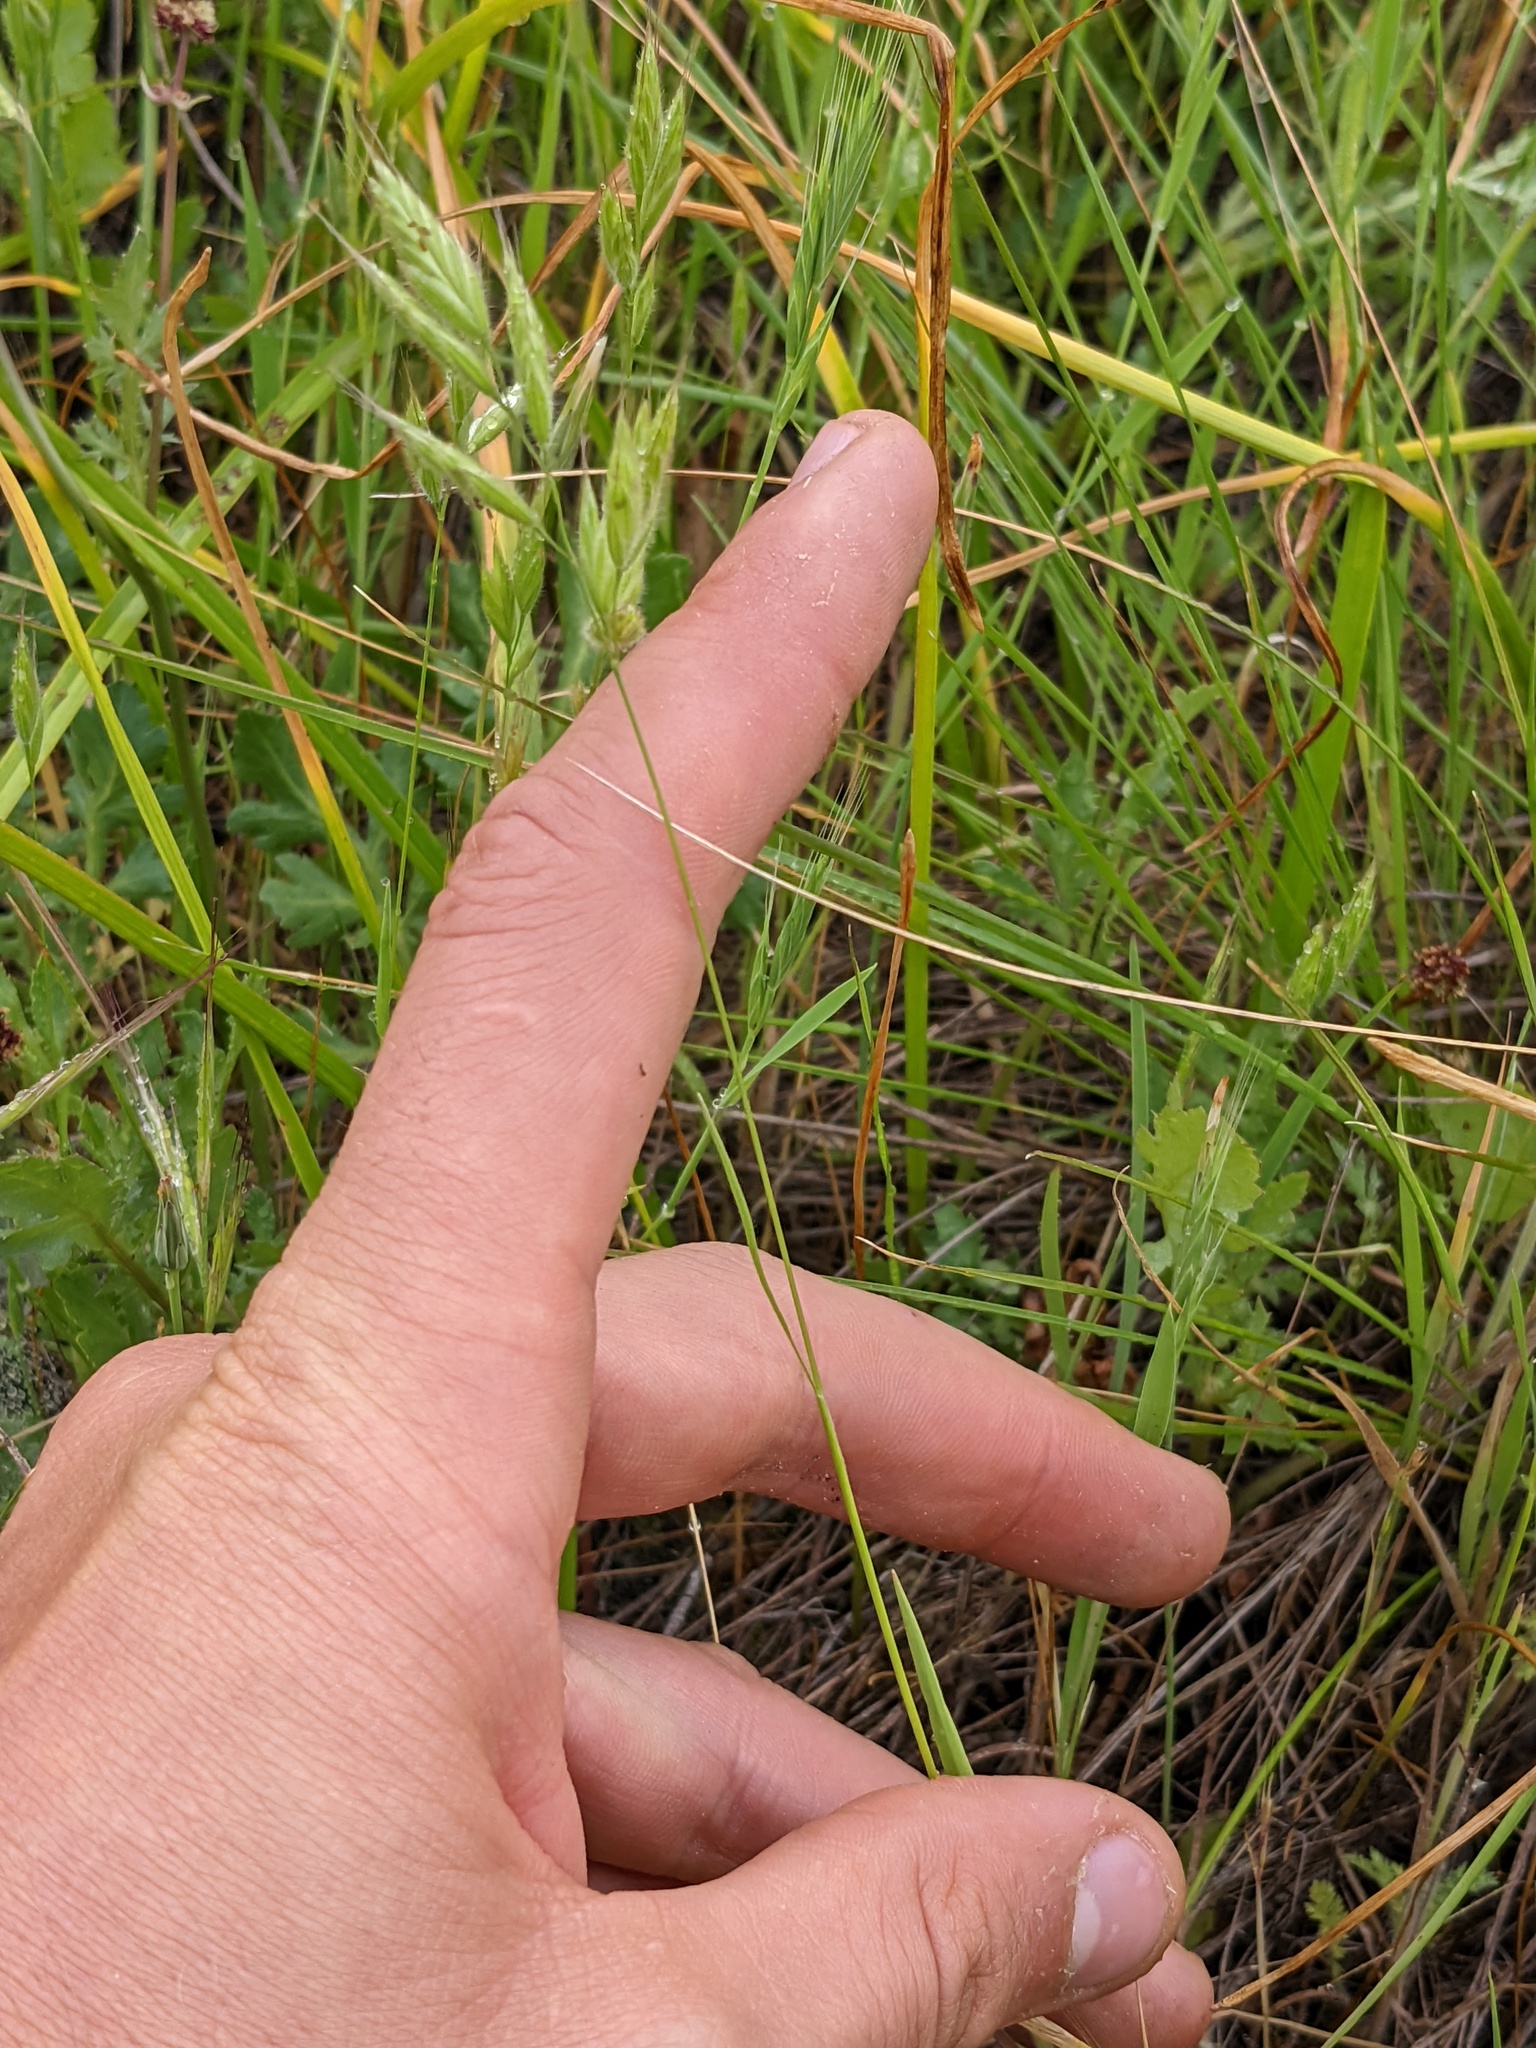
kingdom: Plantae
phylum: Tracheophyta
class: Liliopsida
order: Poales
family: Poaceae
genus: Bromus
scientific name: Bromus hordeaceus
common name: Soft brome
